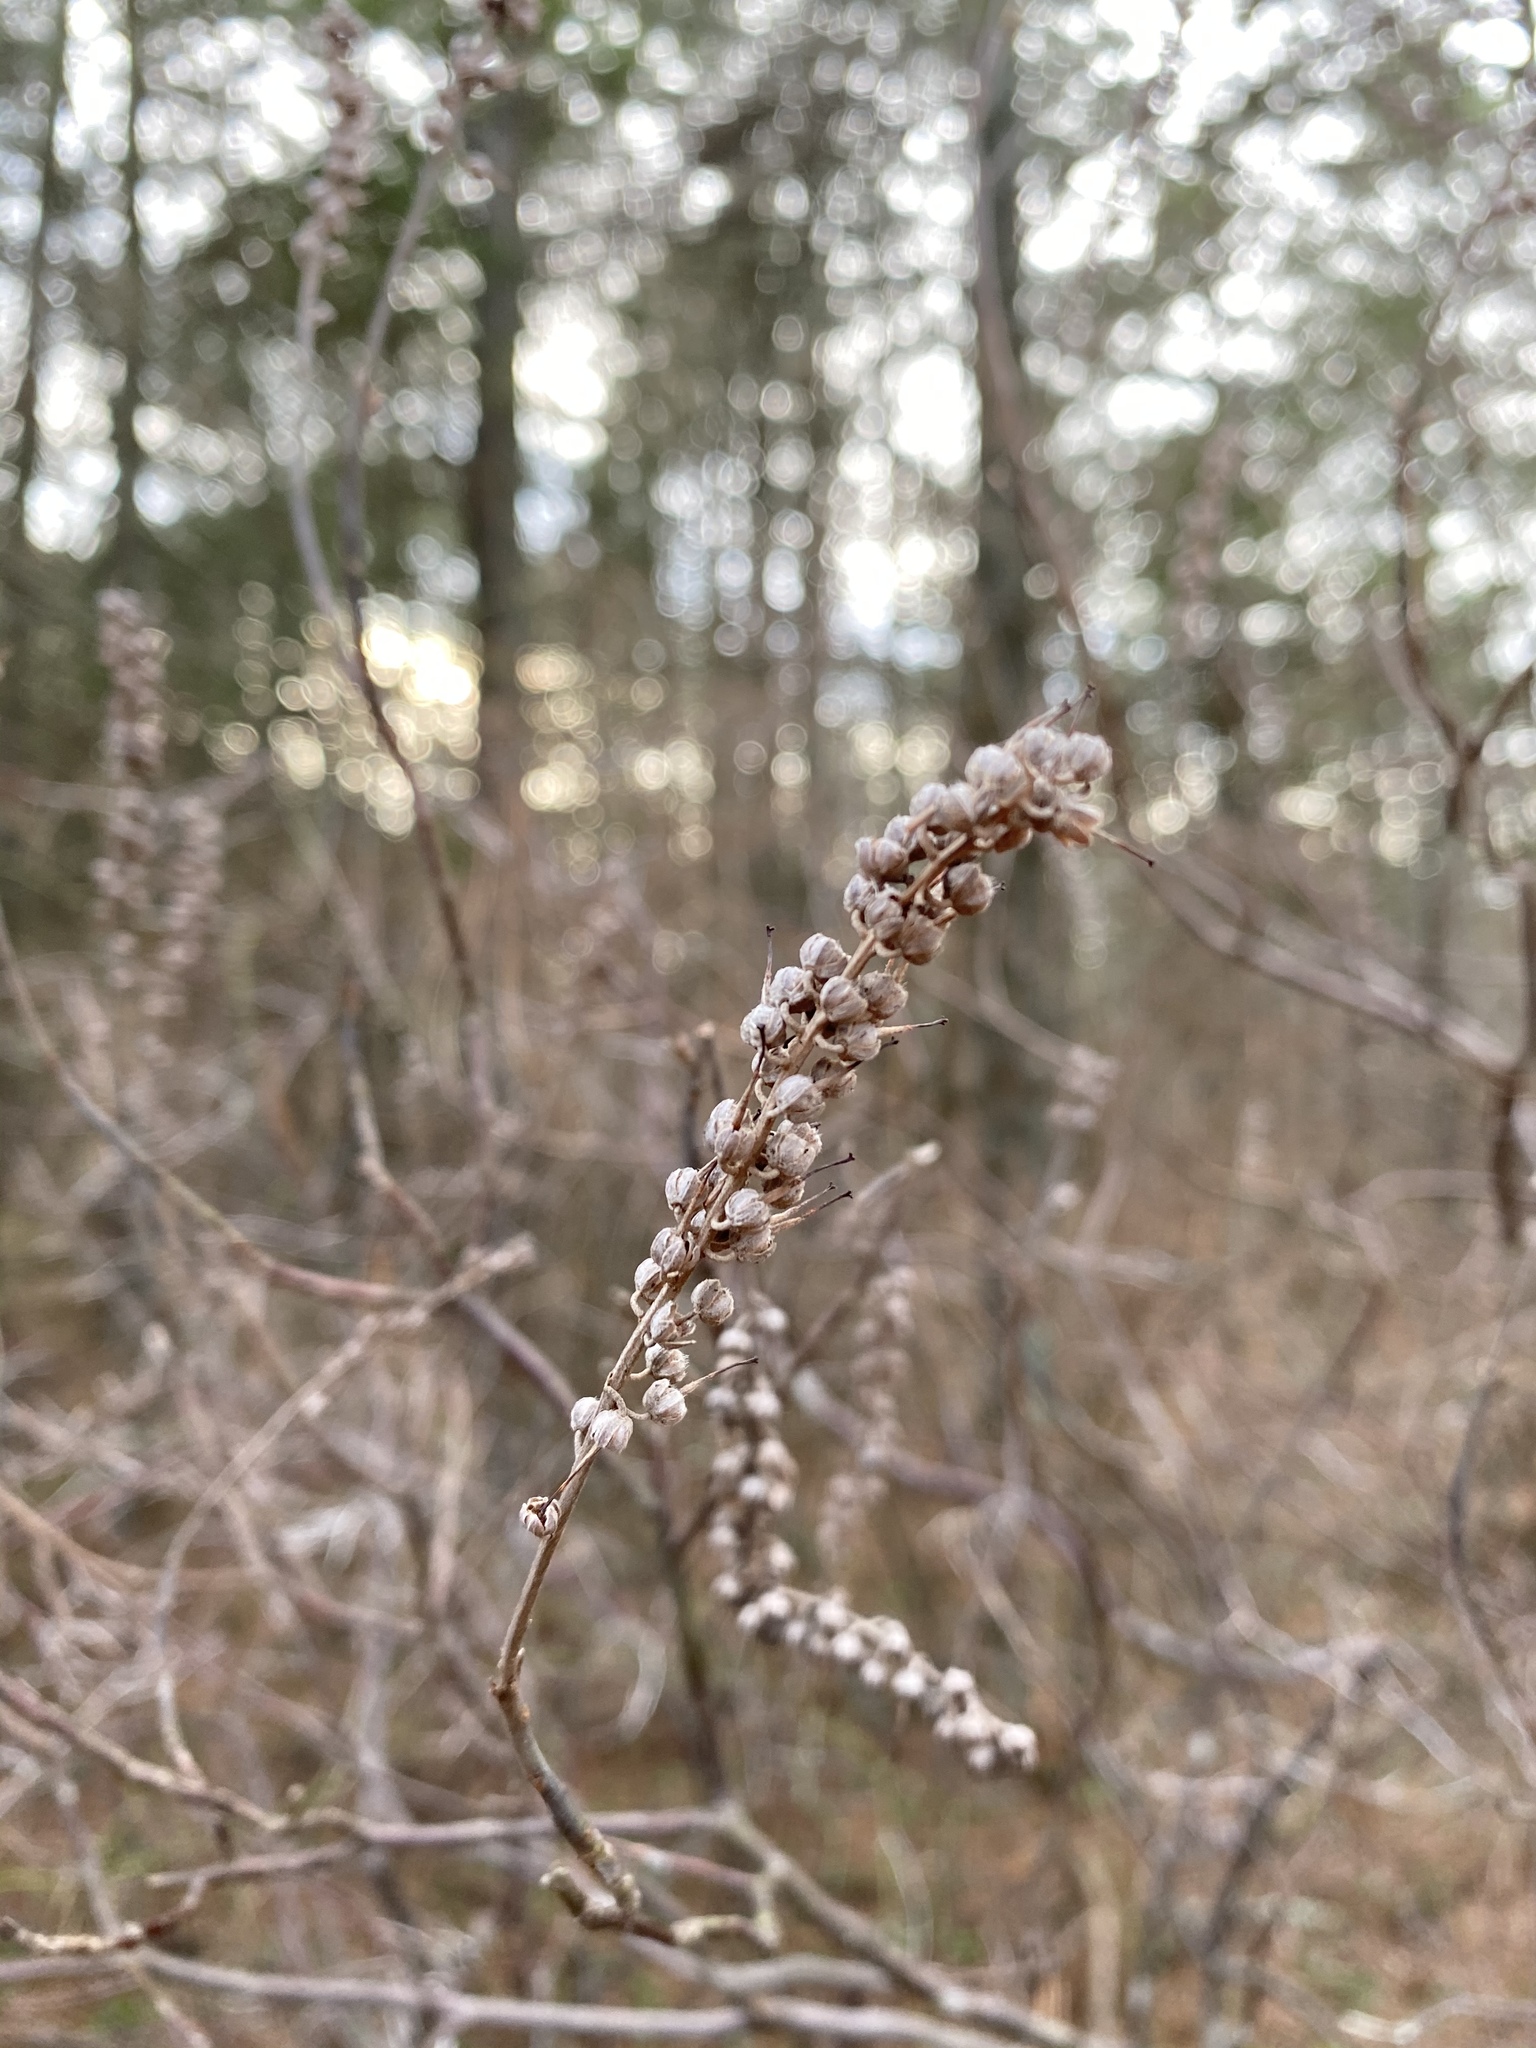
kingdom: Plantae
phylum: Tracheophyta
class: Magnoliopsida
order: Ericales
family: Clethraceae
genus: Clethra
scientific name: Clethra alnifolia
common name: Sweet pepperbush
